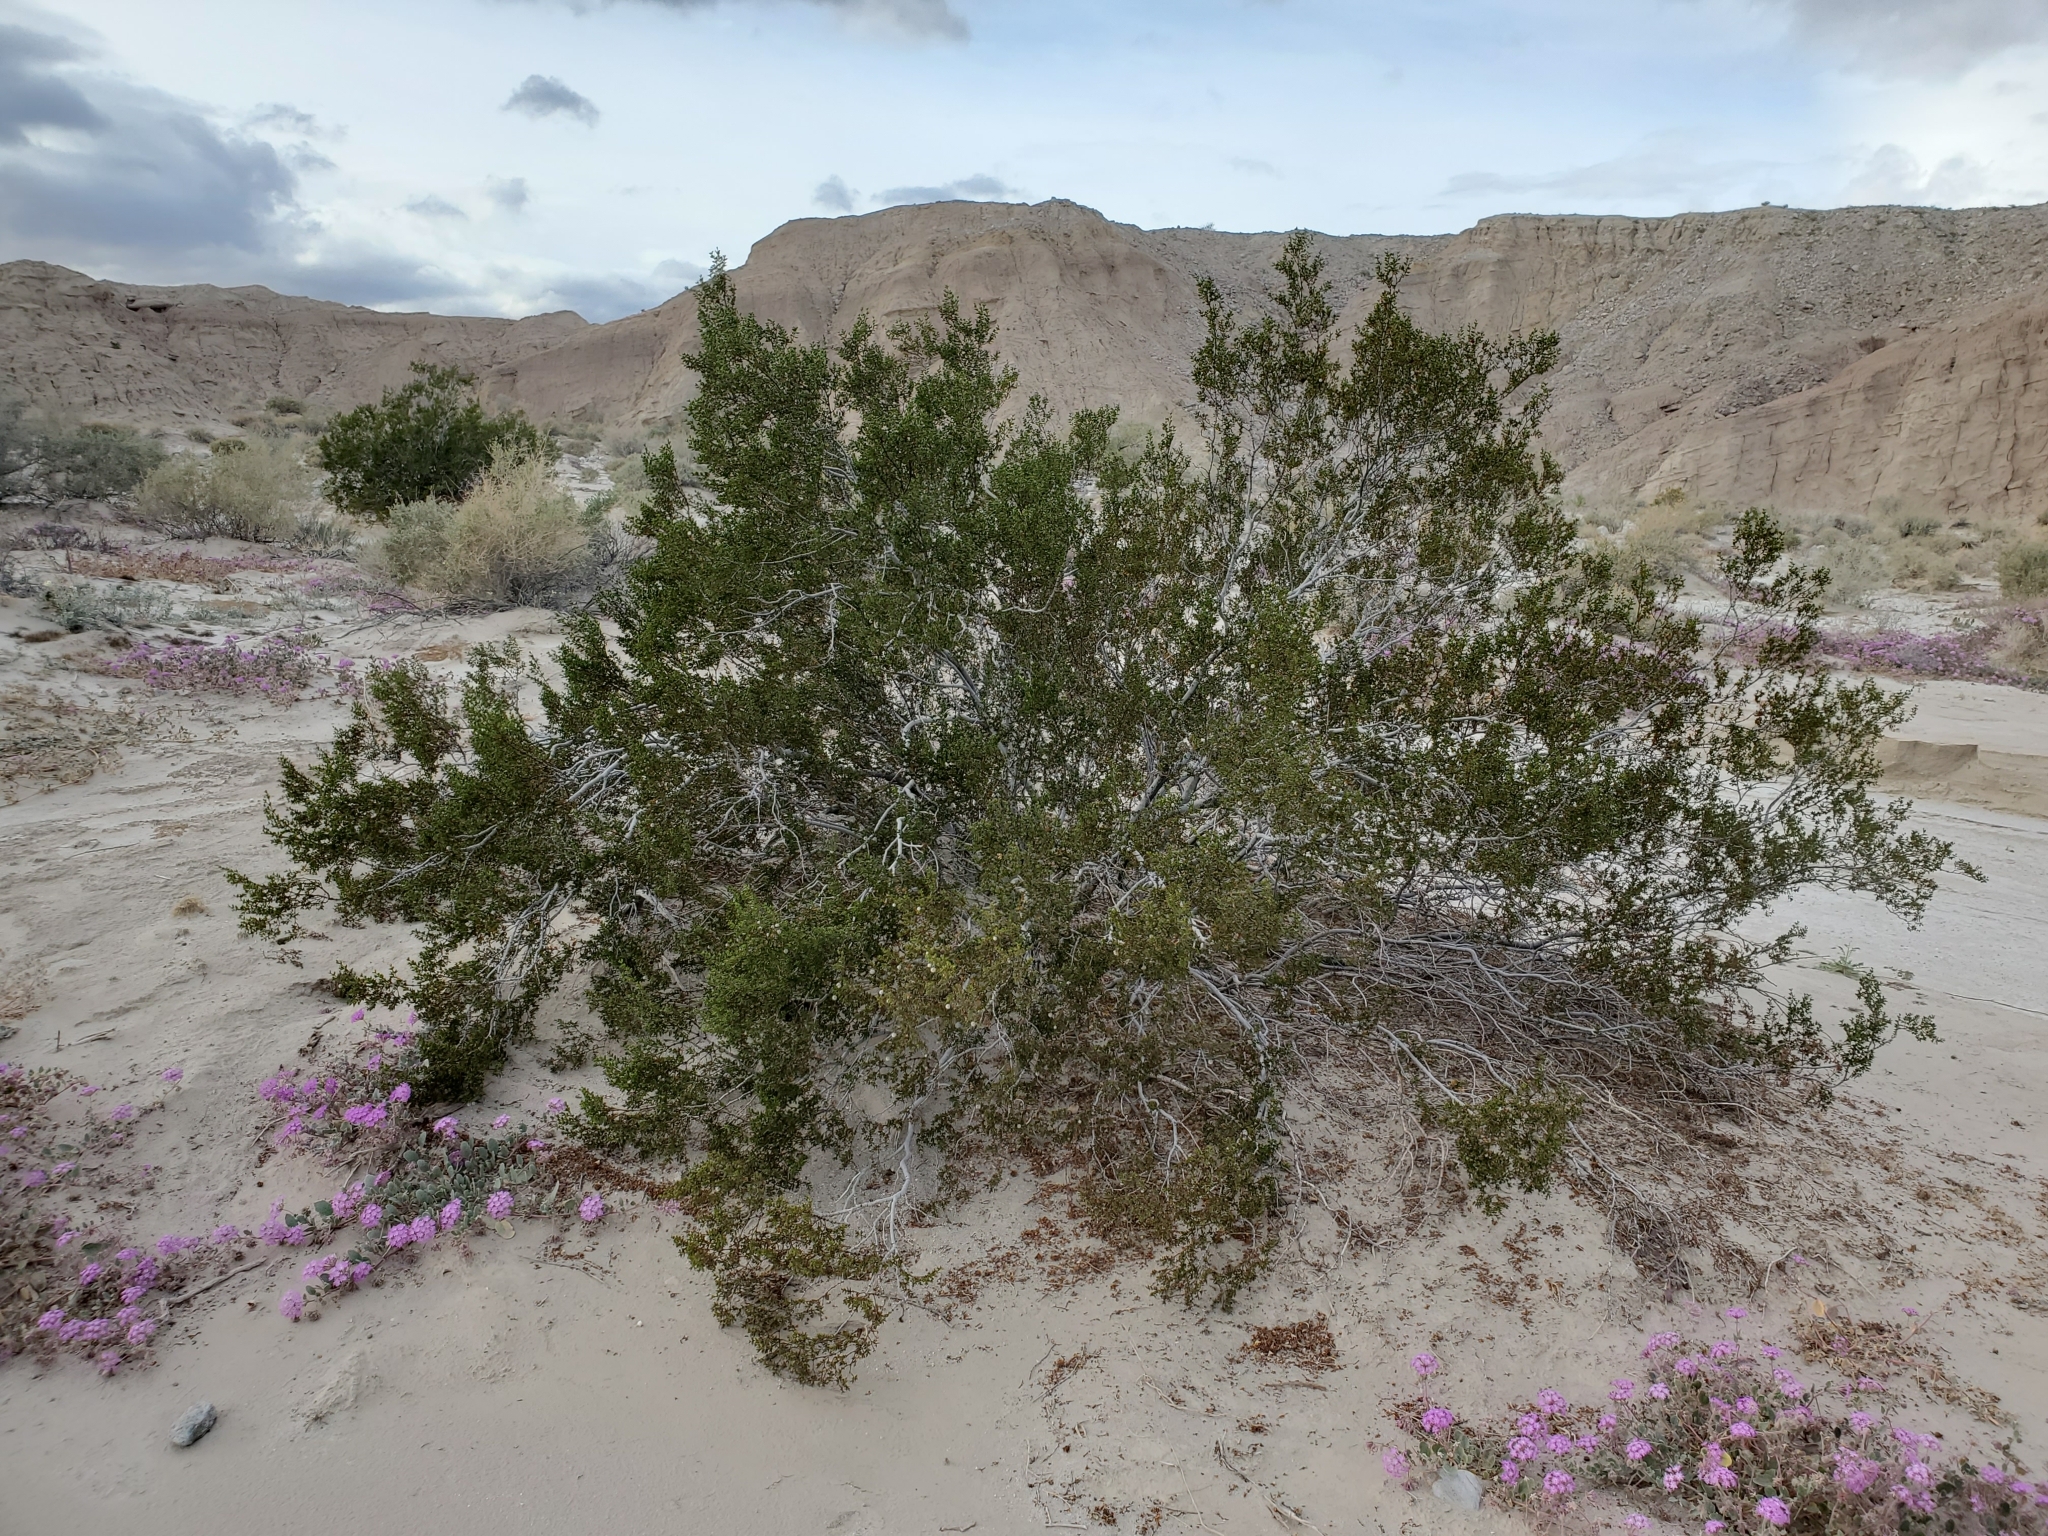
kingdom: Plantae
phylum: Tracheophyta
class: Magnoliopsida
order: Zygophyllales
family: Zygophyllaceae
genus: Larrea
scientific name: Larrea tridentata
